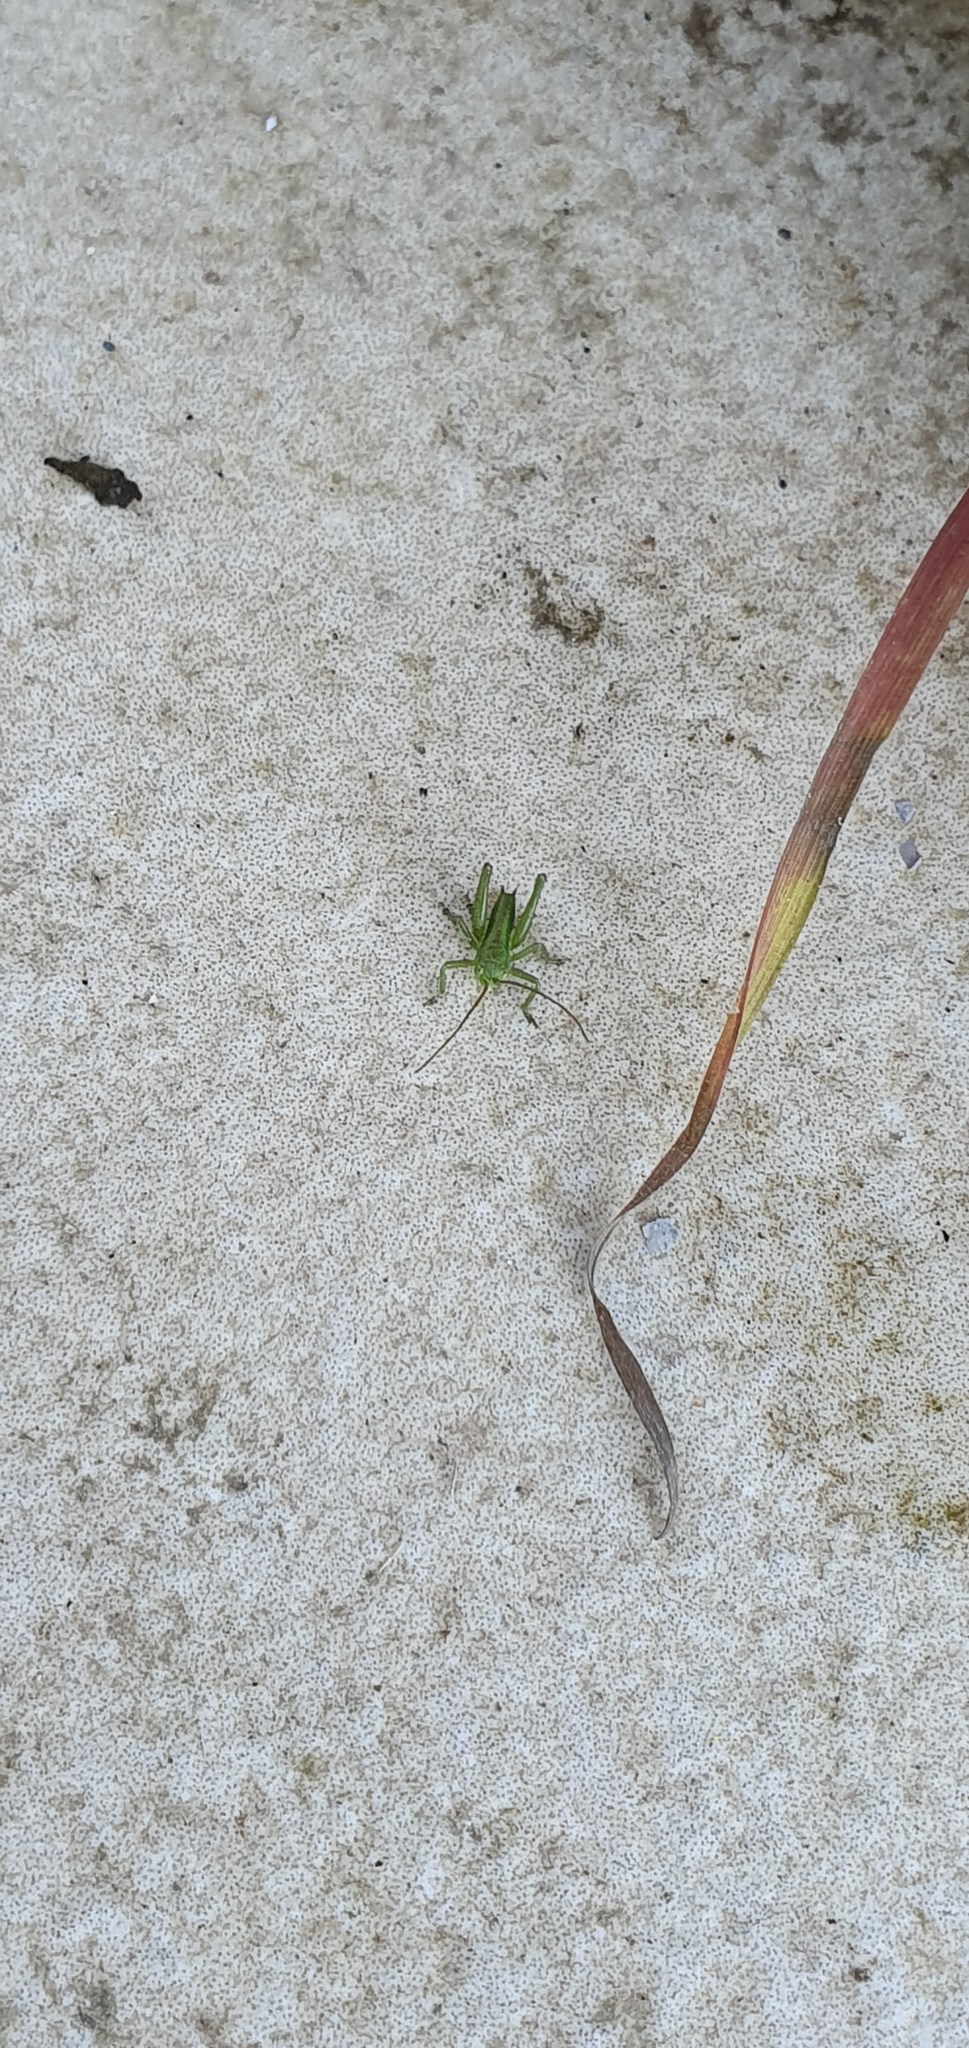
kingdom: Animalia
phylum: Arthropoda
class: Insecta
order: Orthoptera
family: Tettigoniidae
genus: Tettigonia
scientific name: Tettigonia viridissima
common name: Great green bush-cricket
